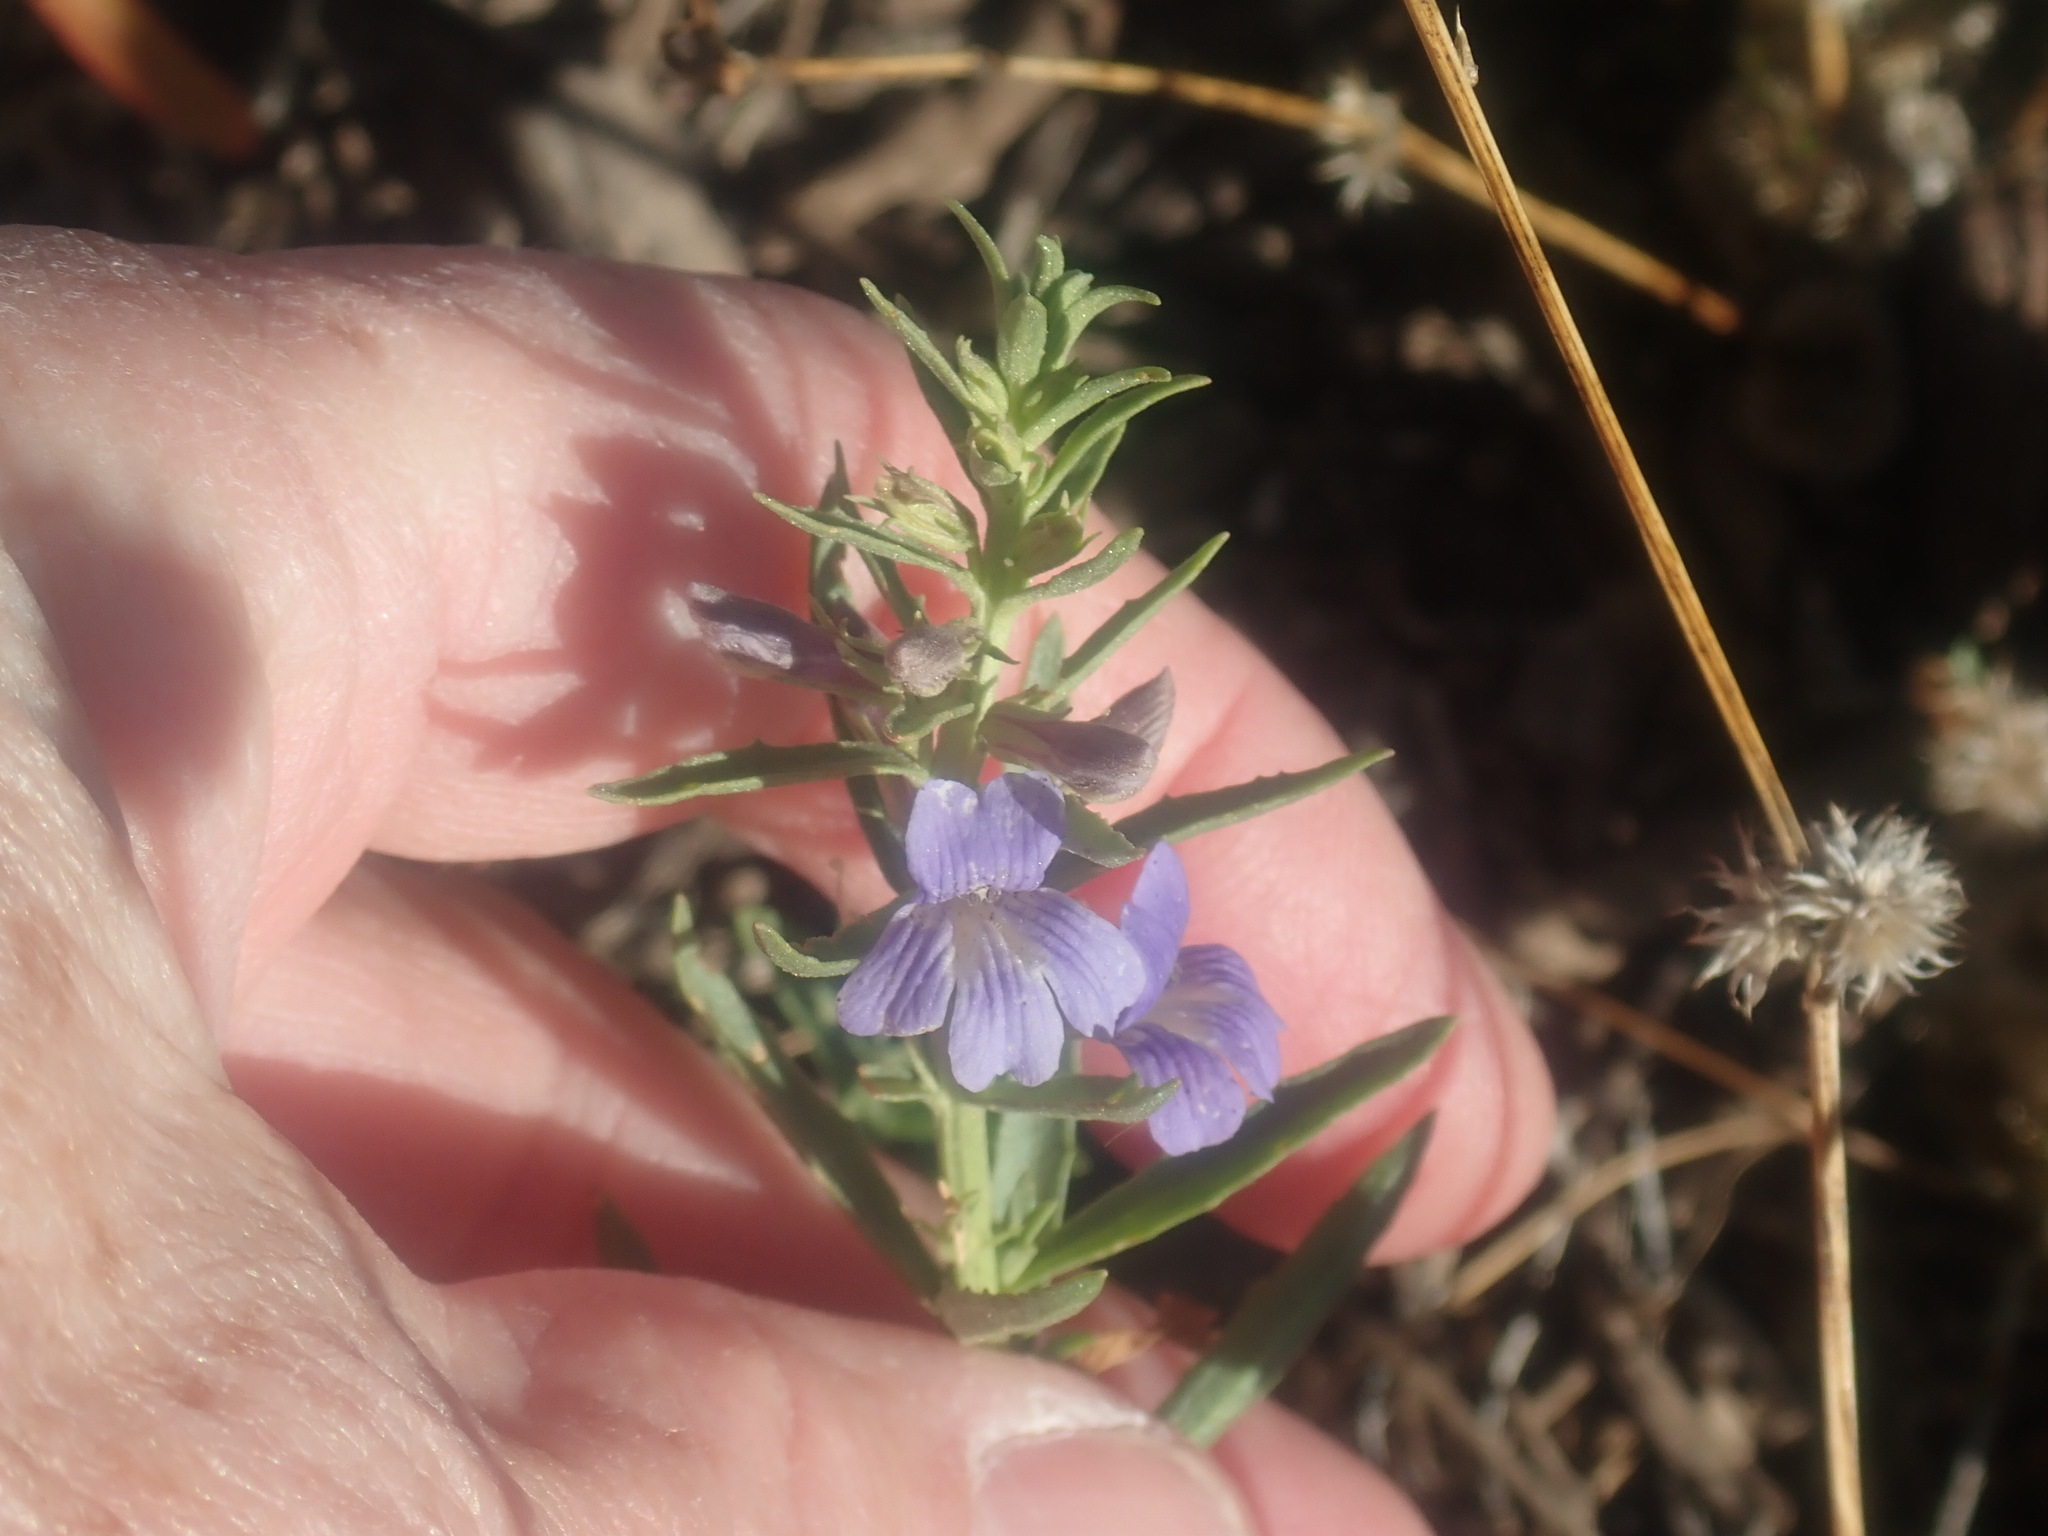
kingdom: Plantae
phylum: Tracheophyta
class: Magnoliopsida
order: Lamiales
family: Plantaginaceae
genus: Stemodia
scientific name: Stemodia florulenta
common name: Bluerod
